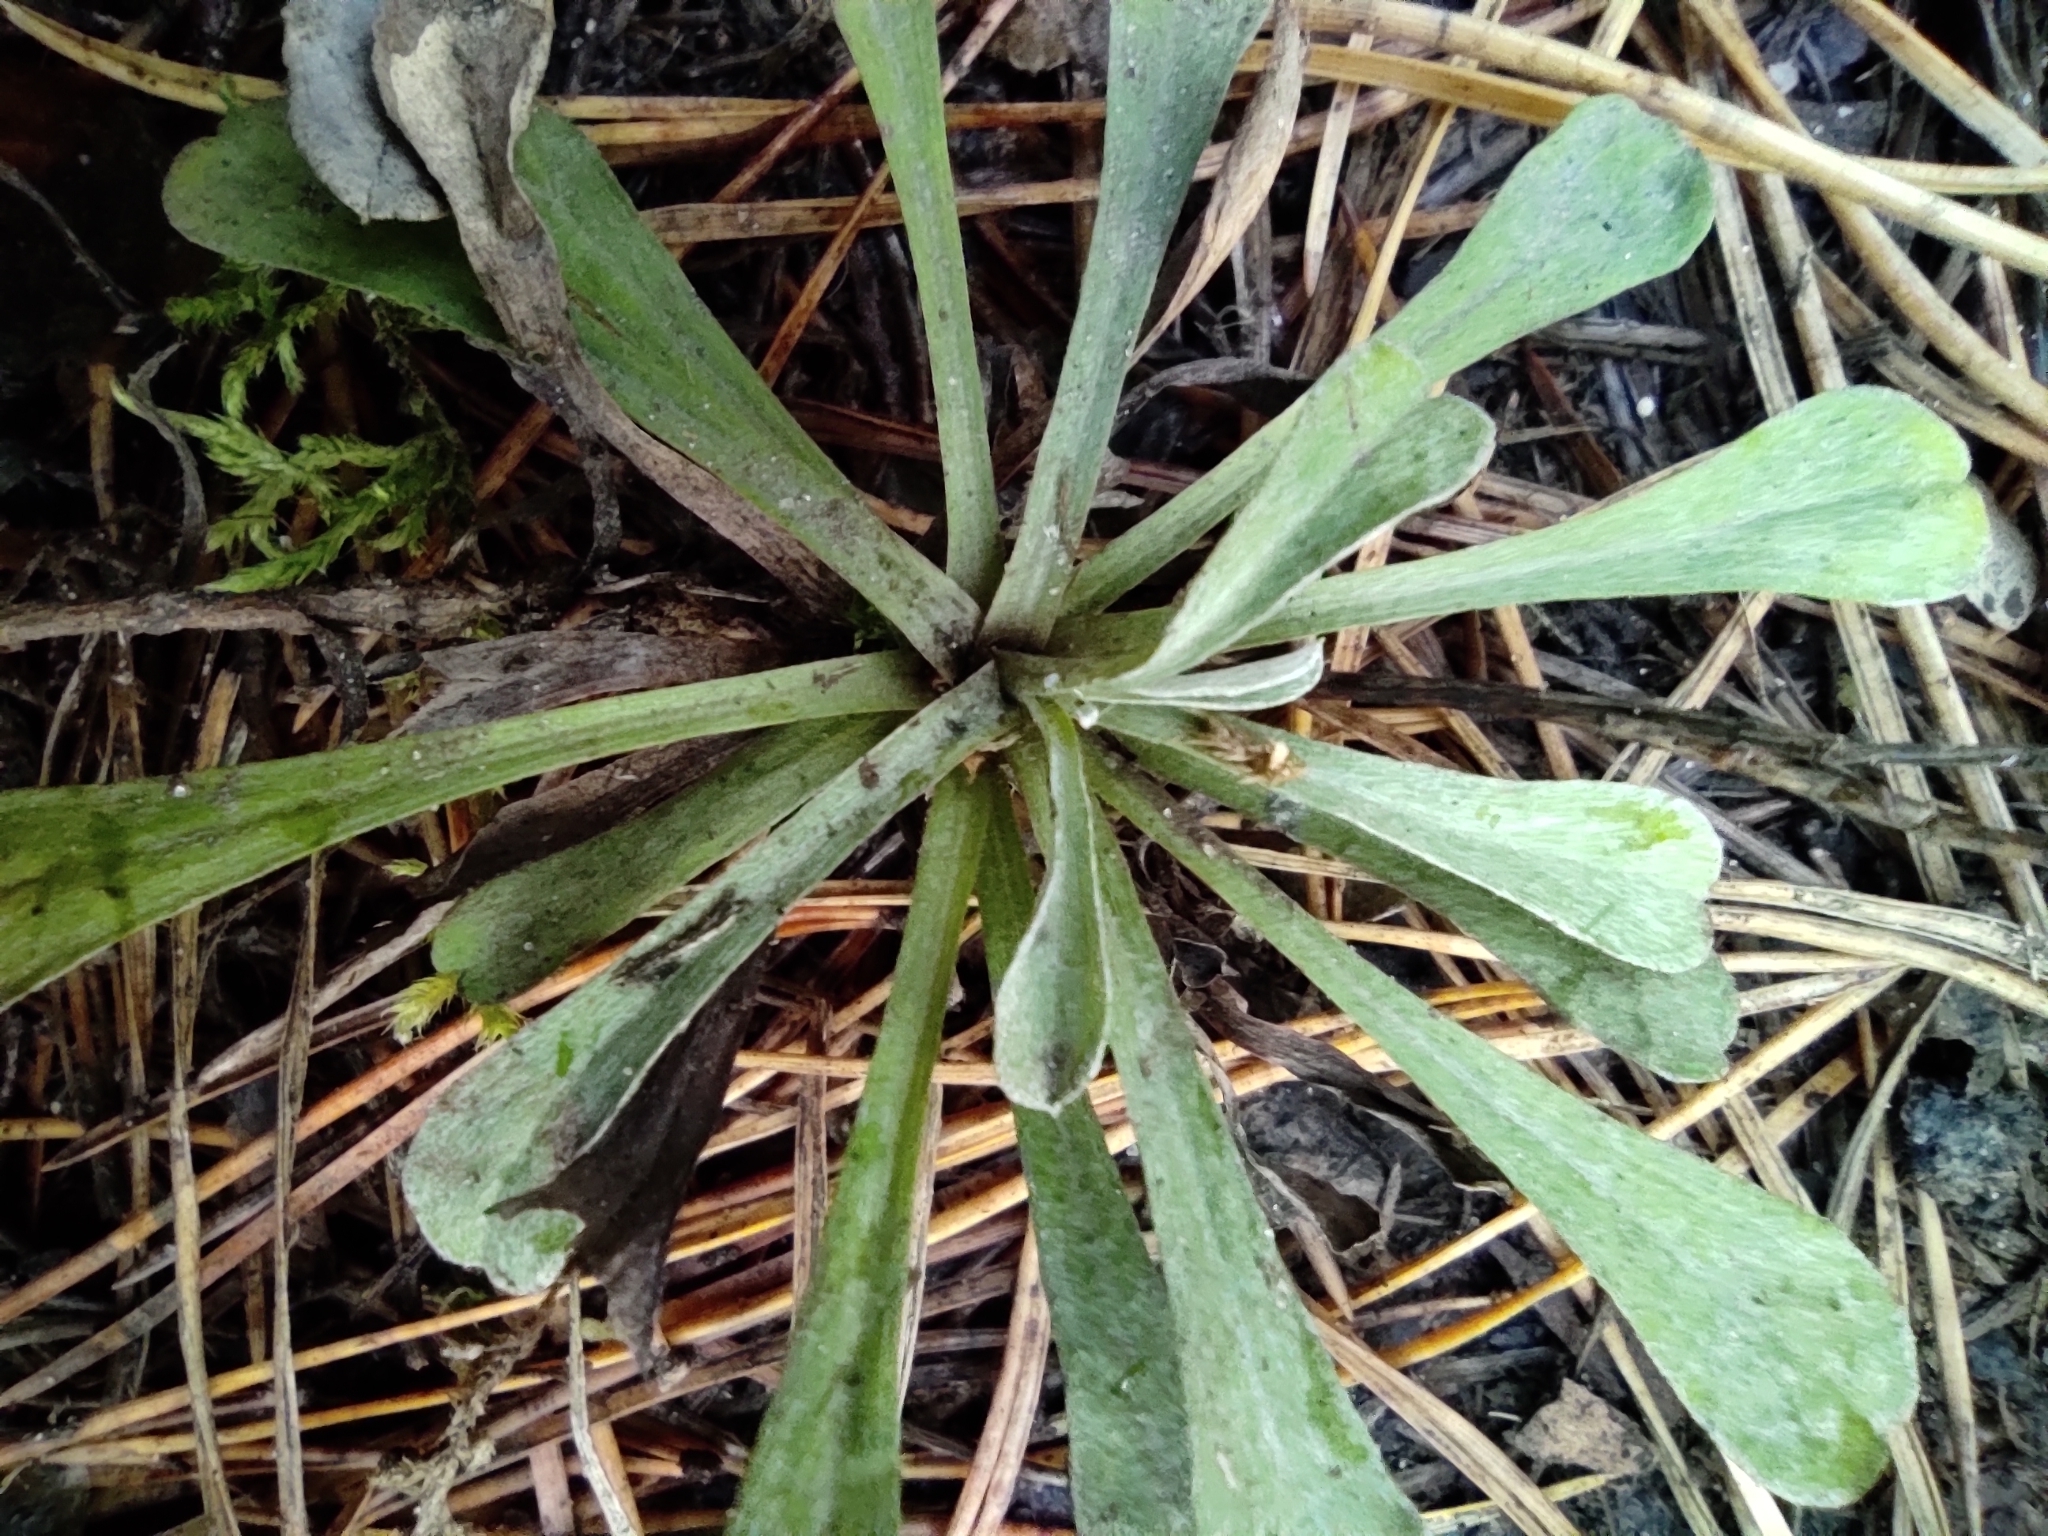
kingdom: Plantae
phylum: Tracheophyta
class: Magnoliopsida
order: Asterales
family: Asteraceae
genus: Antennaria
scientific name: Antennaria dioica
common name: Mountain everlasting
